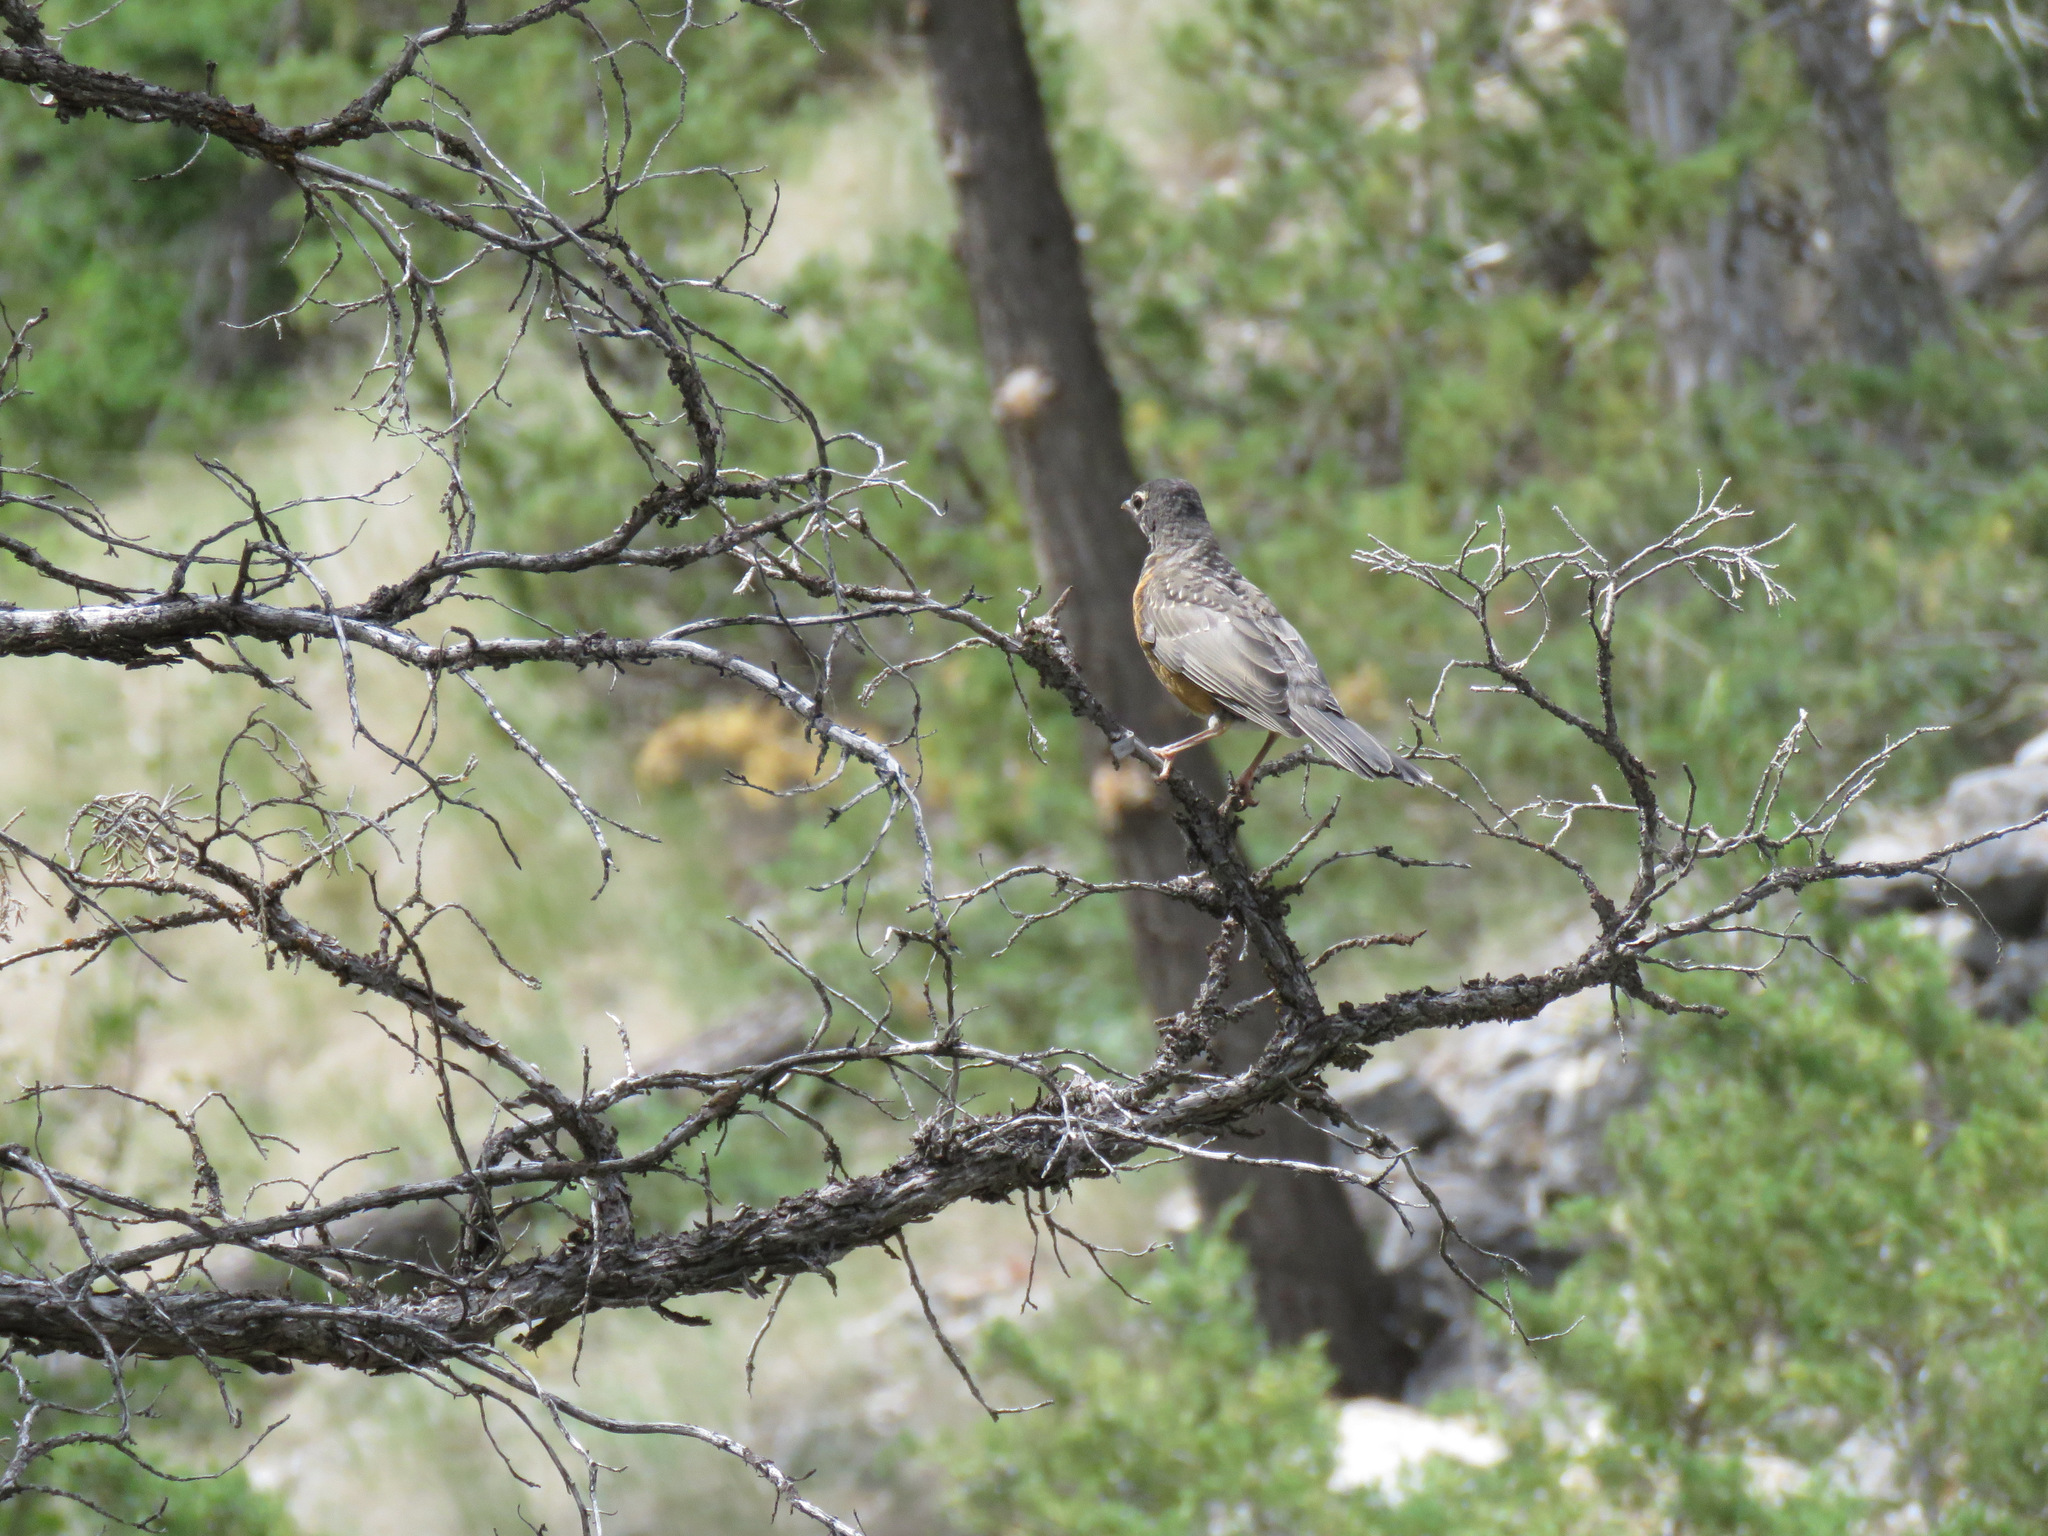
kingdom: Animalia
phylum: Chordata
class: Aves
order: Passeriformes
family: Turdidae
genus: Turdus
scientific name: Turdus migratorius
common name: American robin
